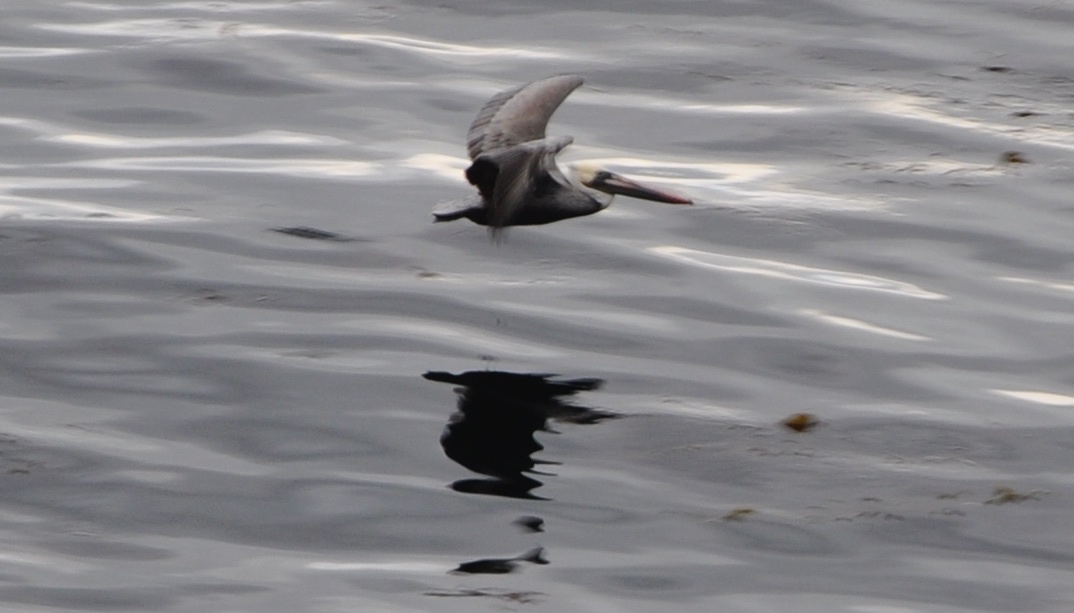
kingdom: Animalia
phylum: Chordata
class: Aves
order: Pelecaniformes
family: Pelecanidae
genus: Pelecanus
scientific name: Pelecanus occidentalis
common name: Brown pelican
